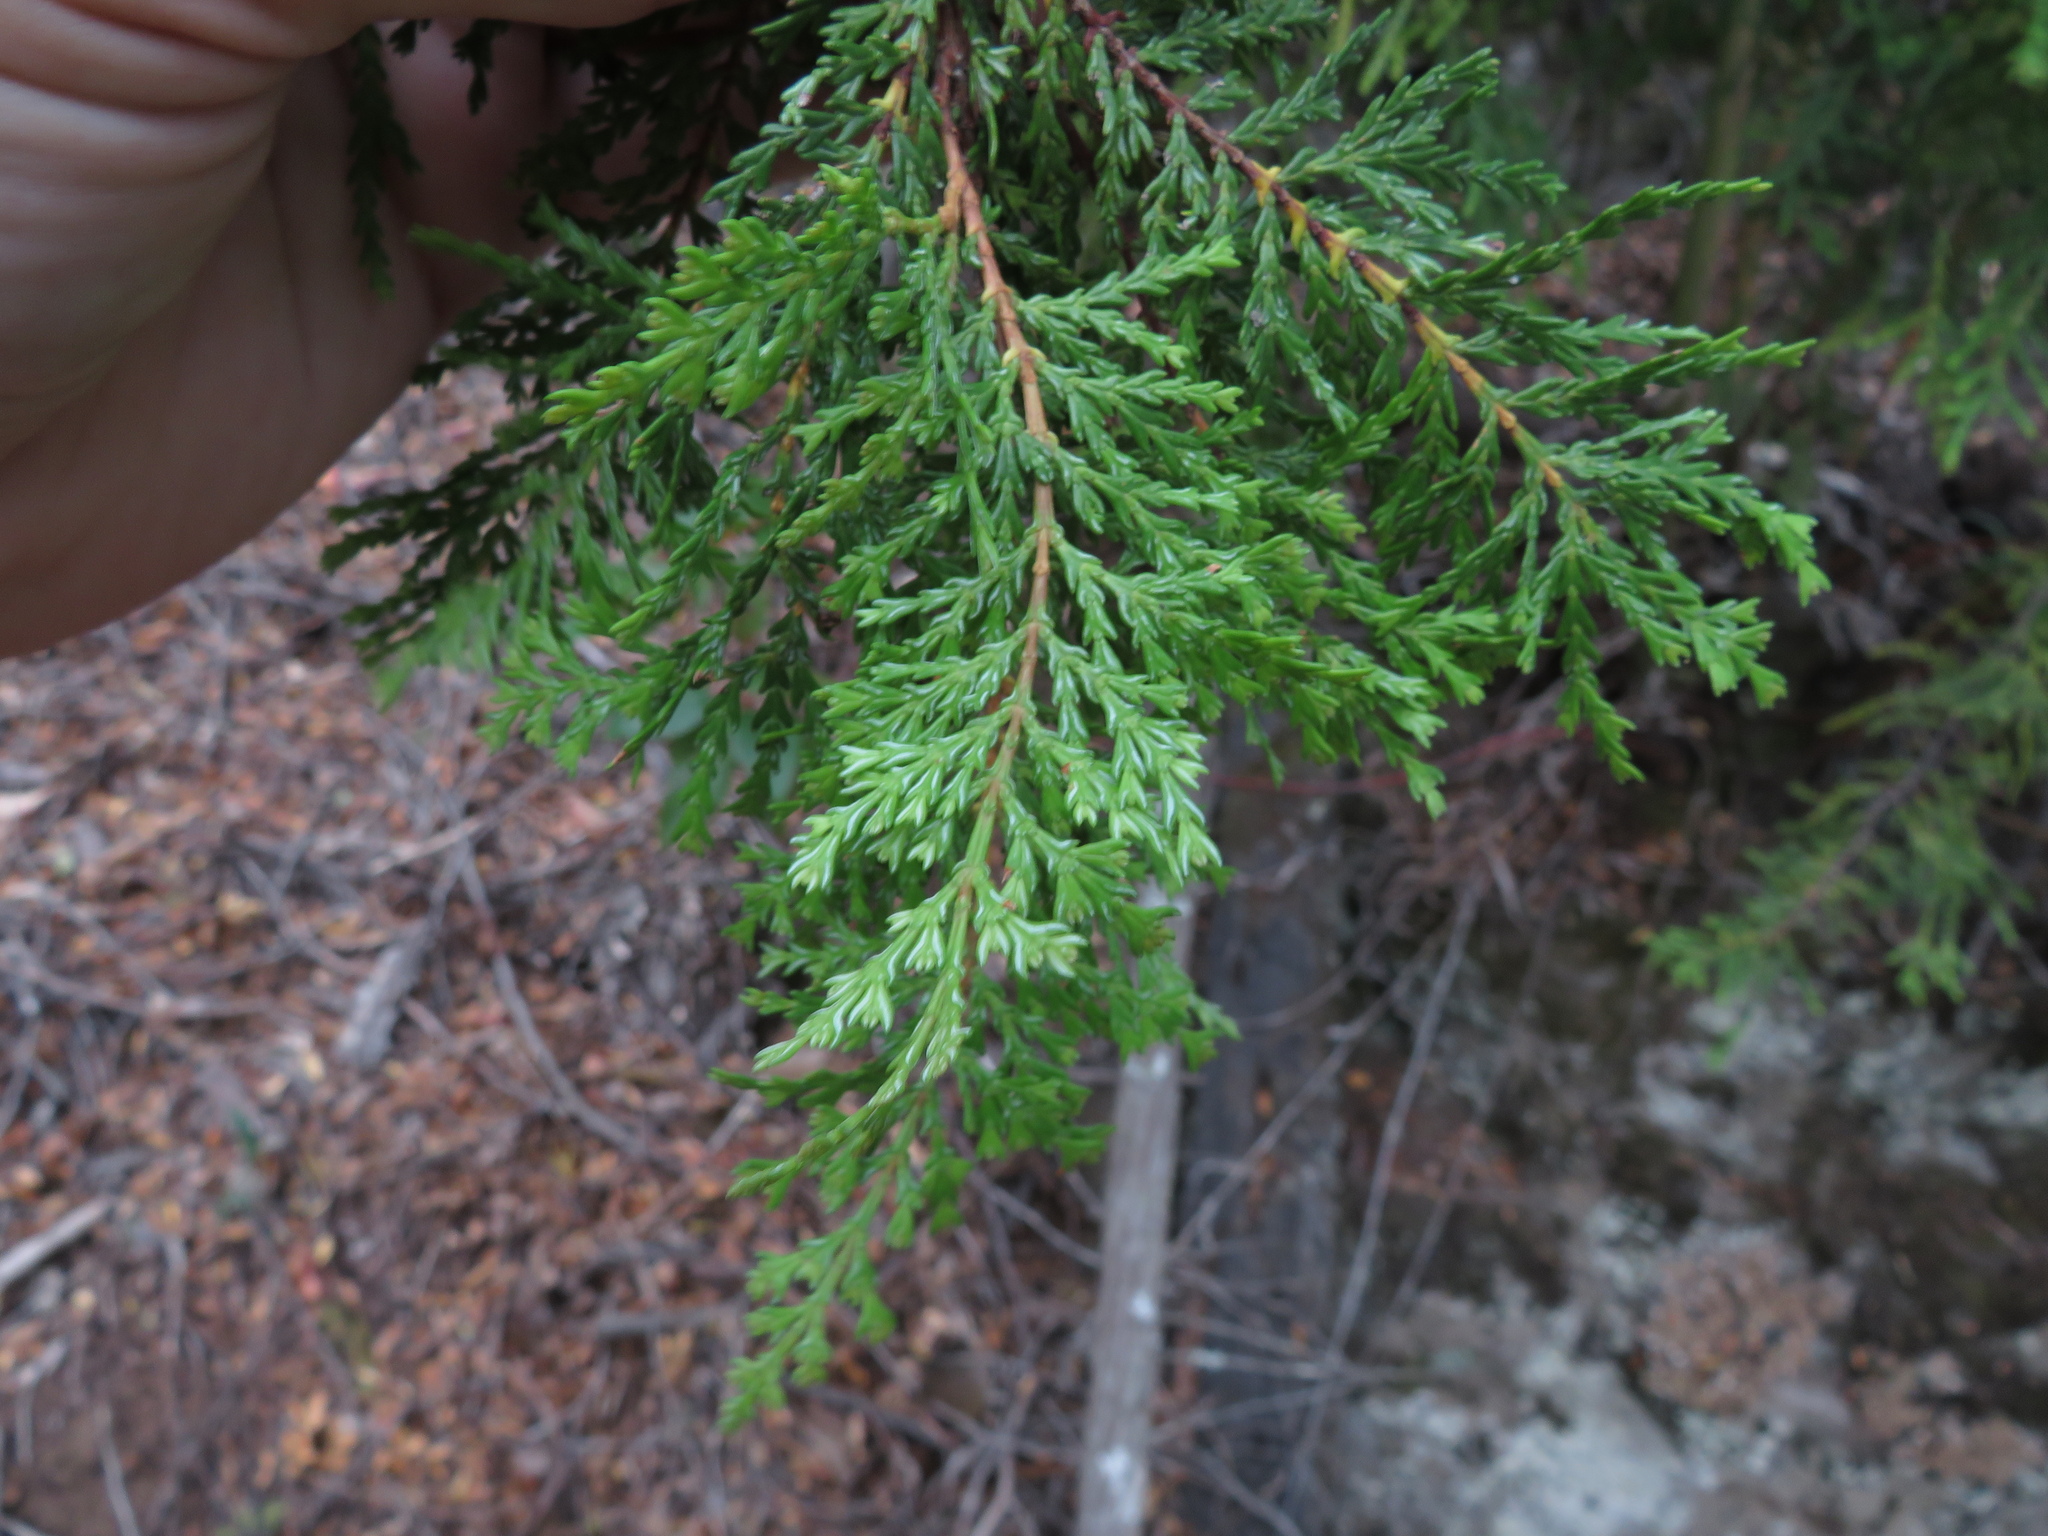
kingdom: Plantae
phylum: Tracheophyta
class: Pinopsida
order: Pinales
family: Cupressaceae
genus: Austrocedrus
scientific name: Austrocedrus chilensis
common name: Chilean incense-cedar
